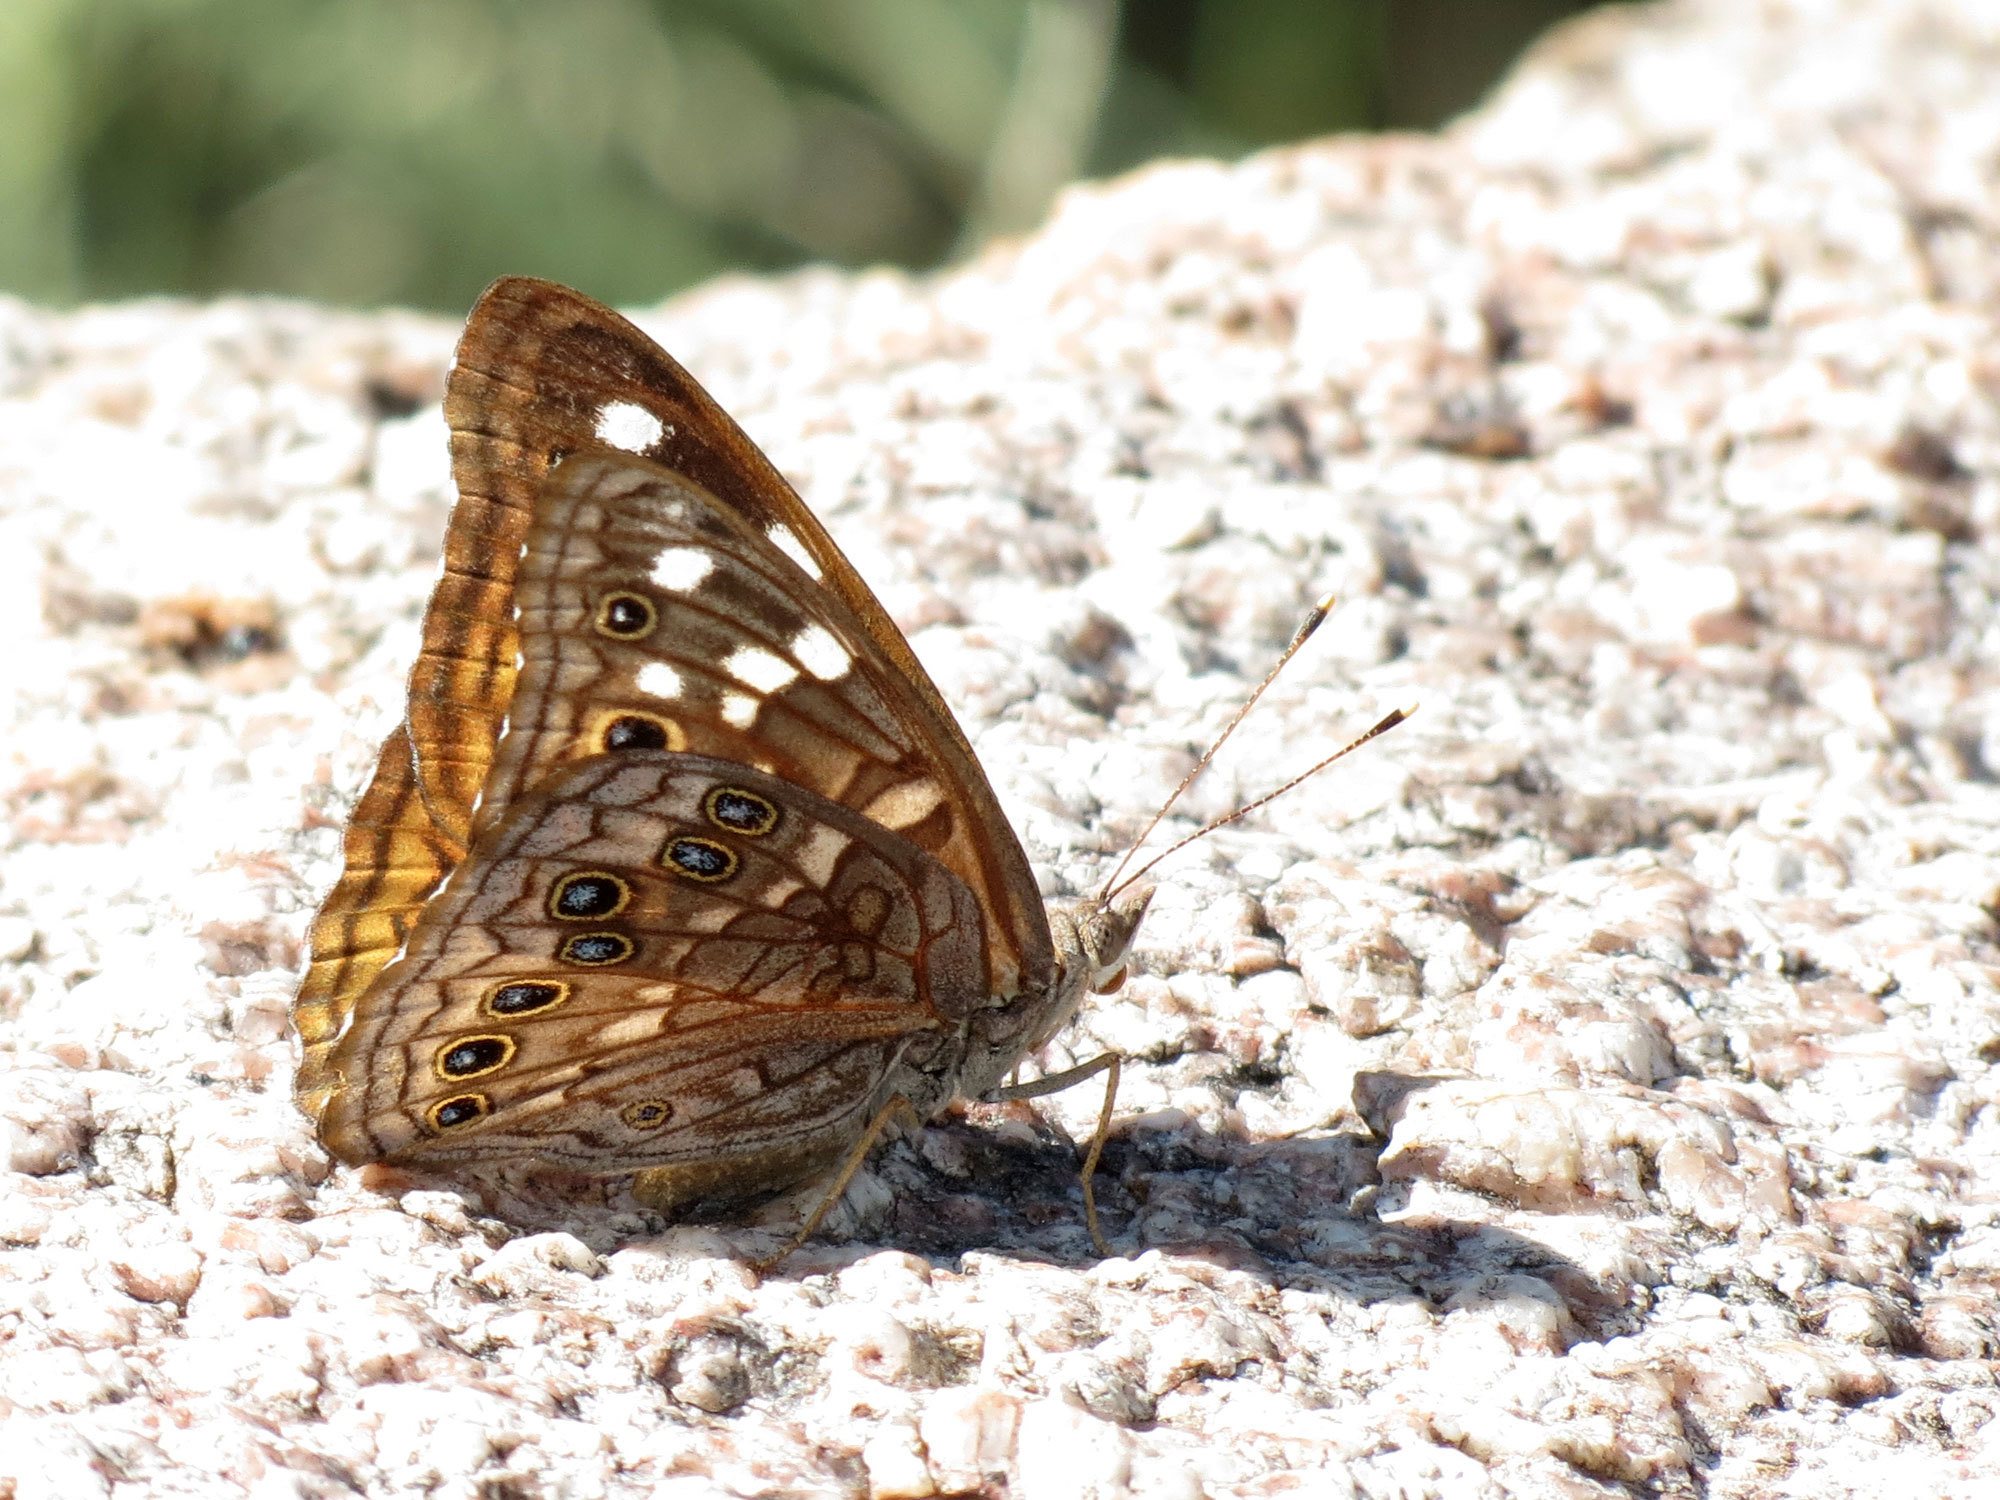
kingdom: Animalia
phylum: Arthropoda
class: Insecta
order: Lepidoptera
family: Nymphalidae
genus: Asterocampa
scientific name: Asterocampa leilia
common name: Empress leilia
